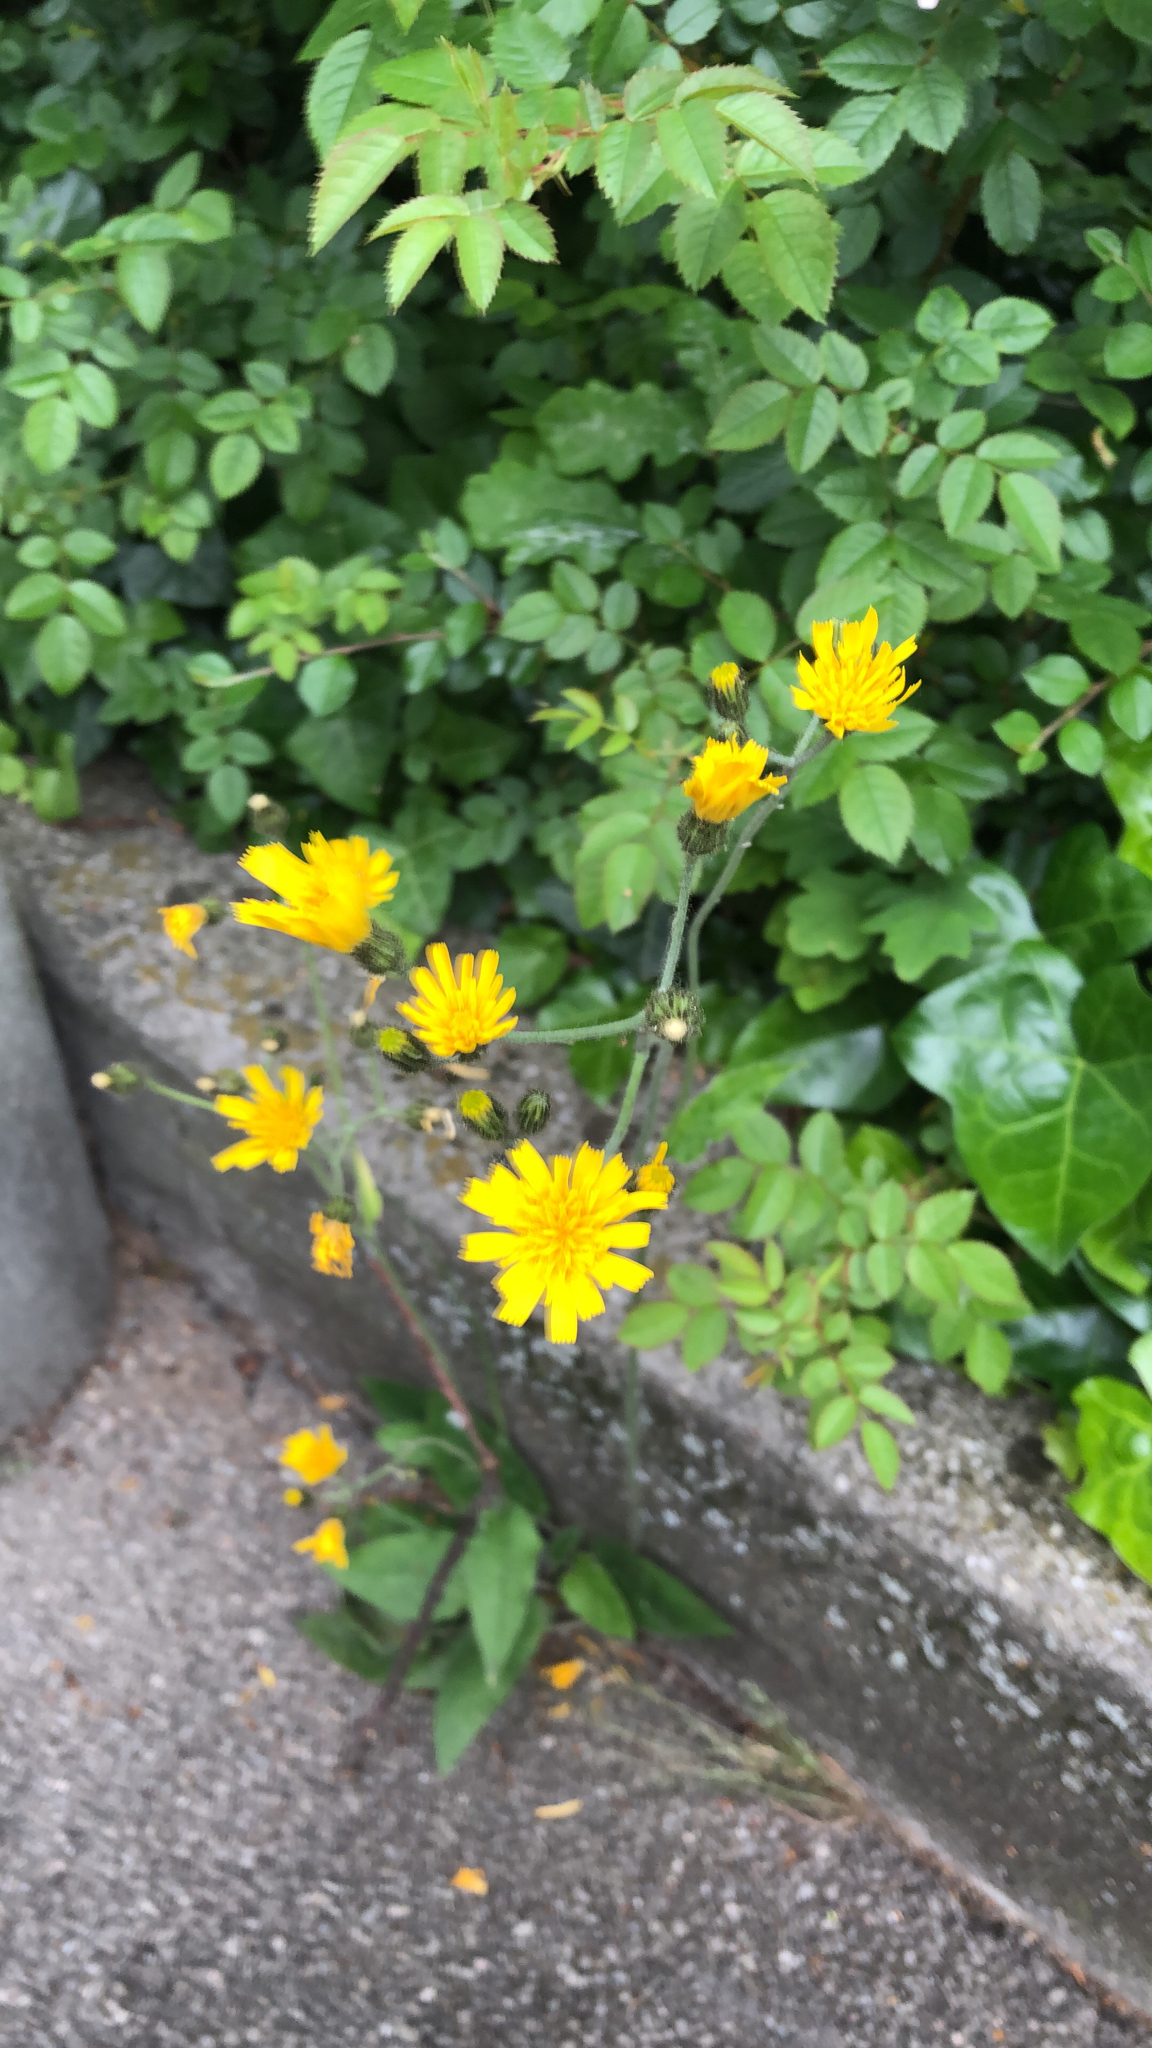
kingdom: Plantae
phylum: Tracheophyta
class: Magnoliopsida
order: Asterales
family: Asteraceae
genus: Hieracium
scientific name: Hieracium murorum
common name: Wall hawkweed
